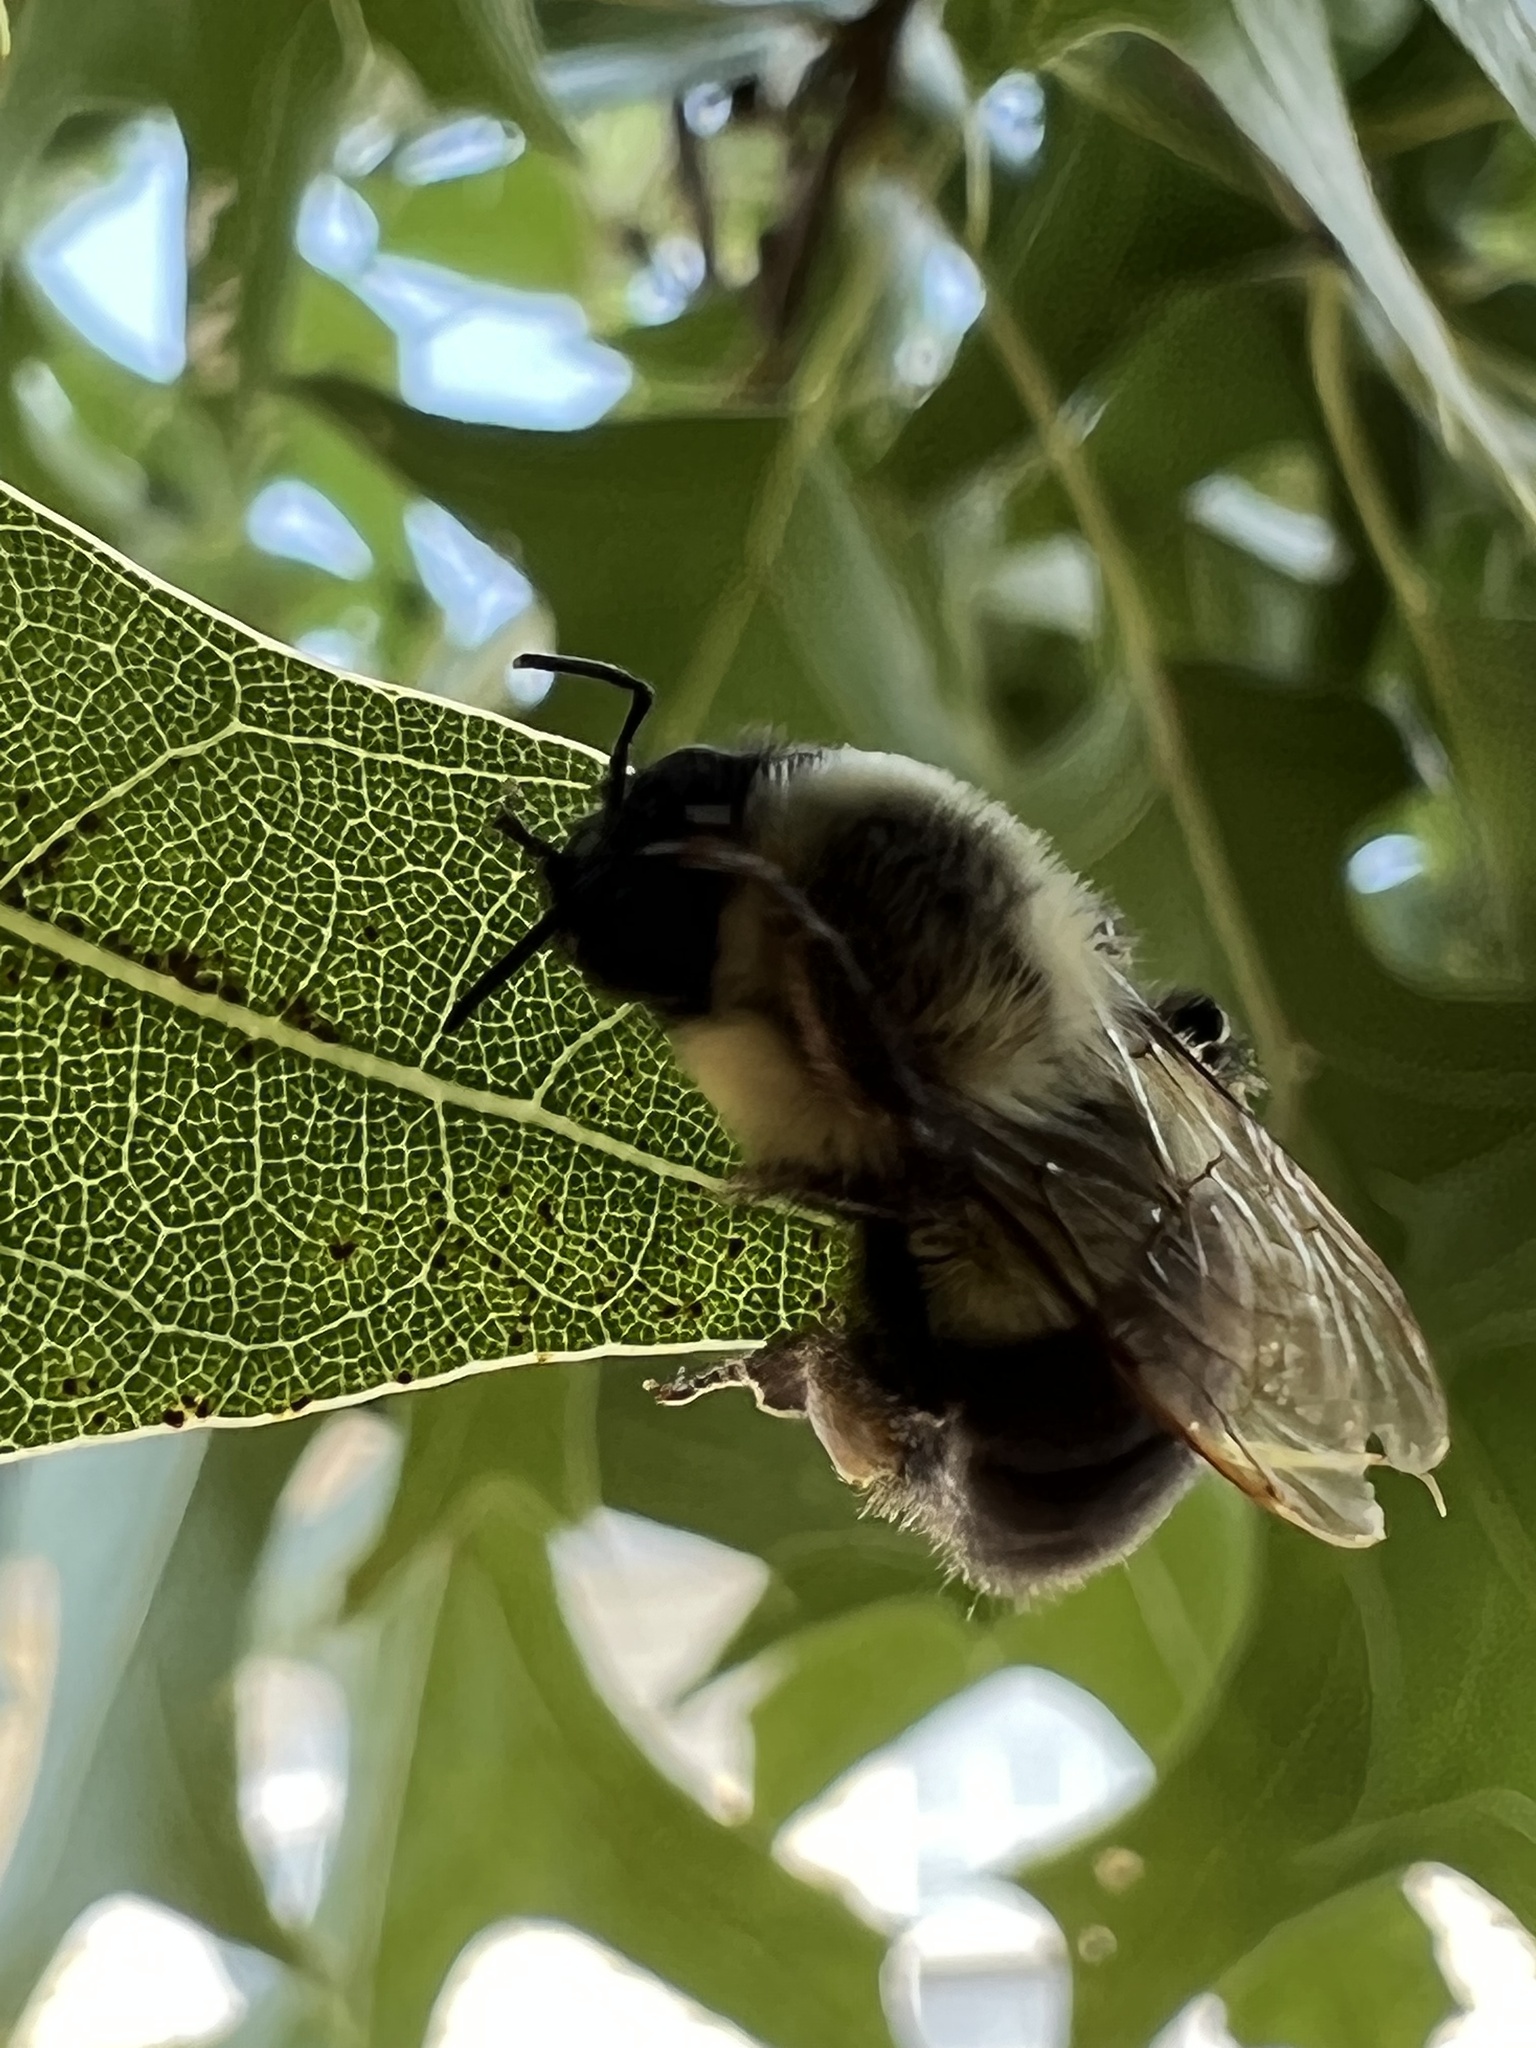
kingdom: Animalia
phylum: Arthropoda
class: Insecta
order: Hymenoptera
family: Apidae
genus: Bombus
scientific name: Bombus impatiens
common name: Common eastern bumble bee
